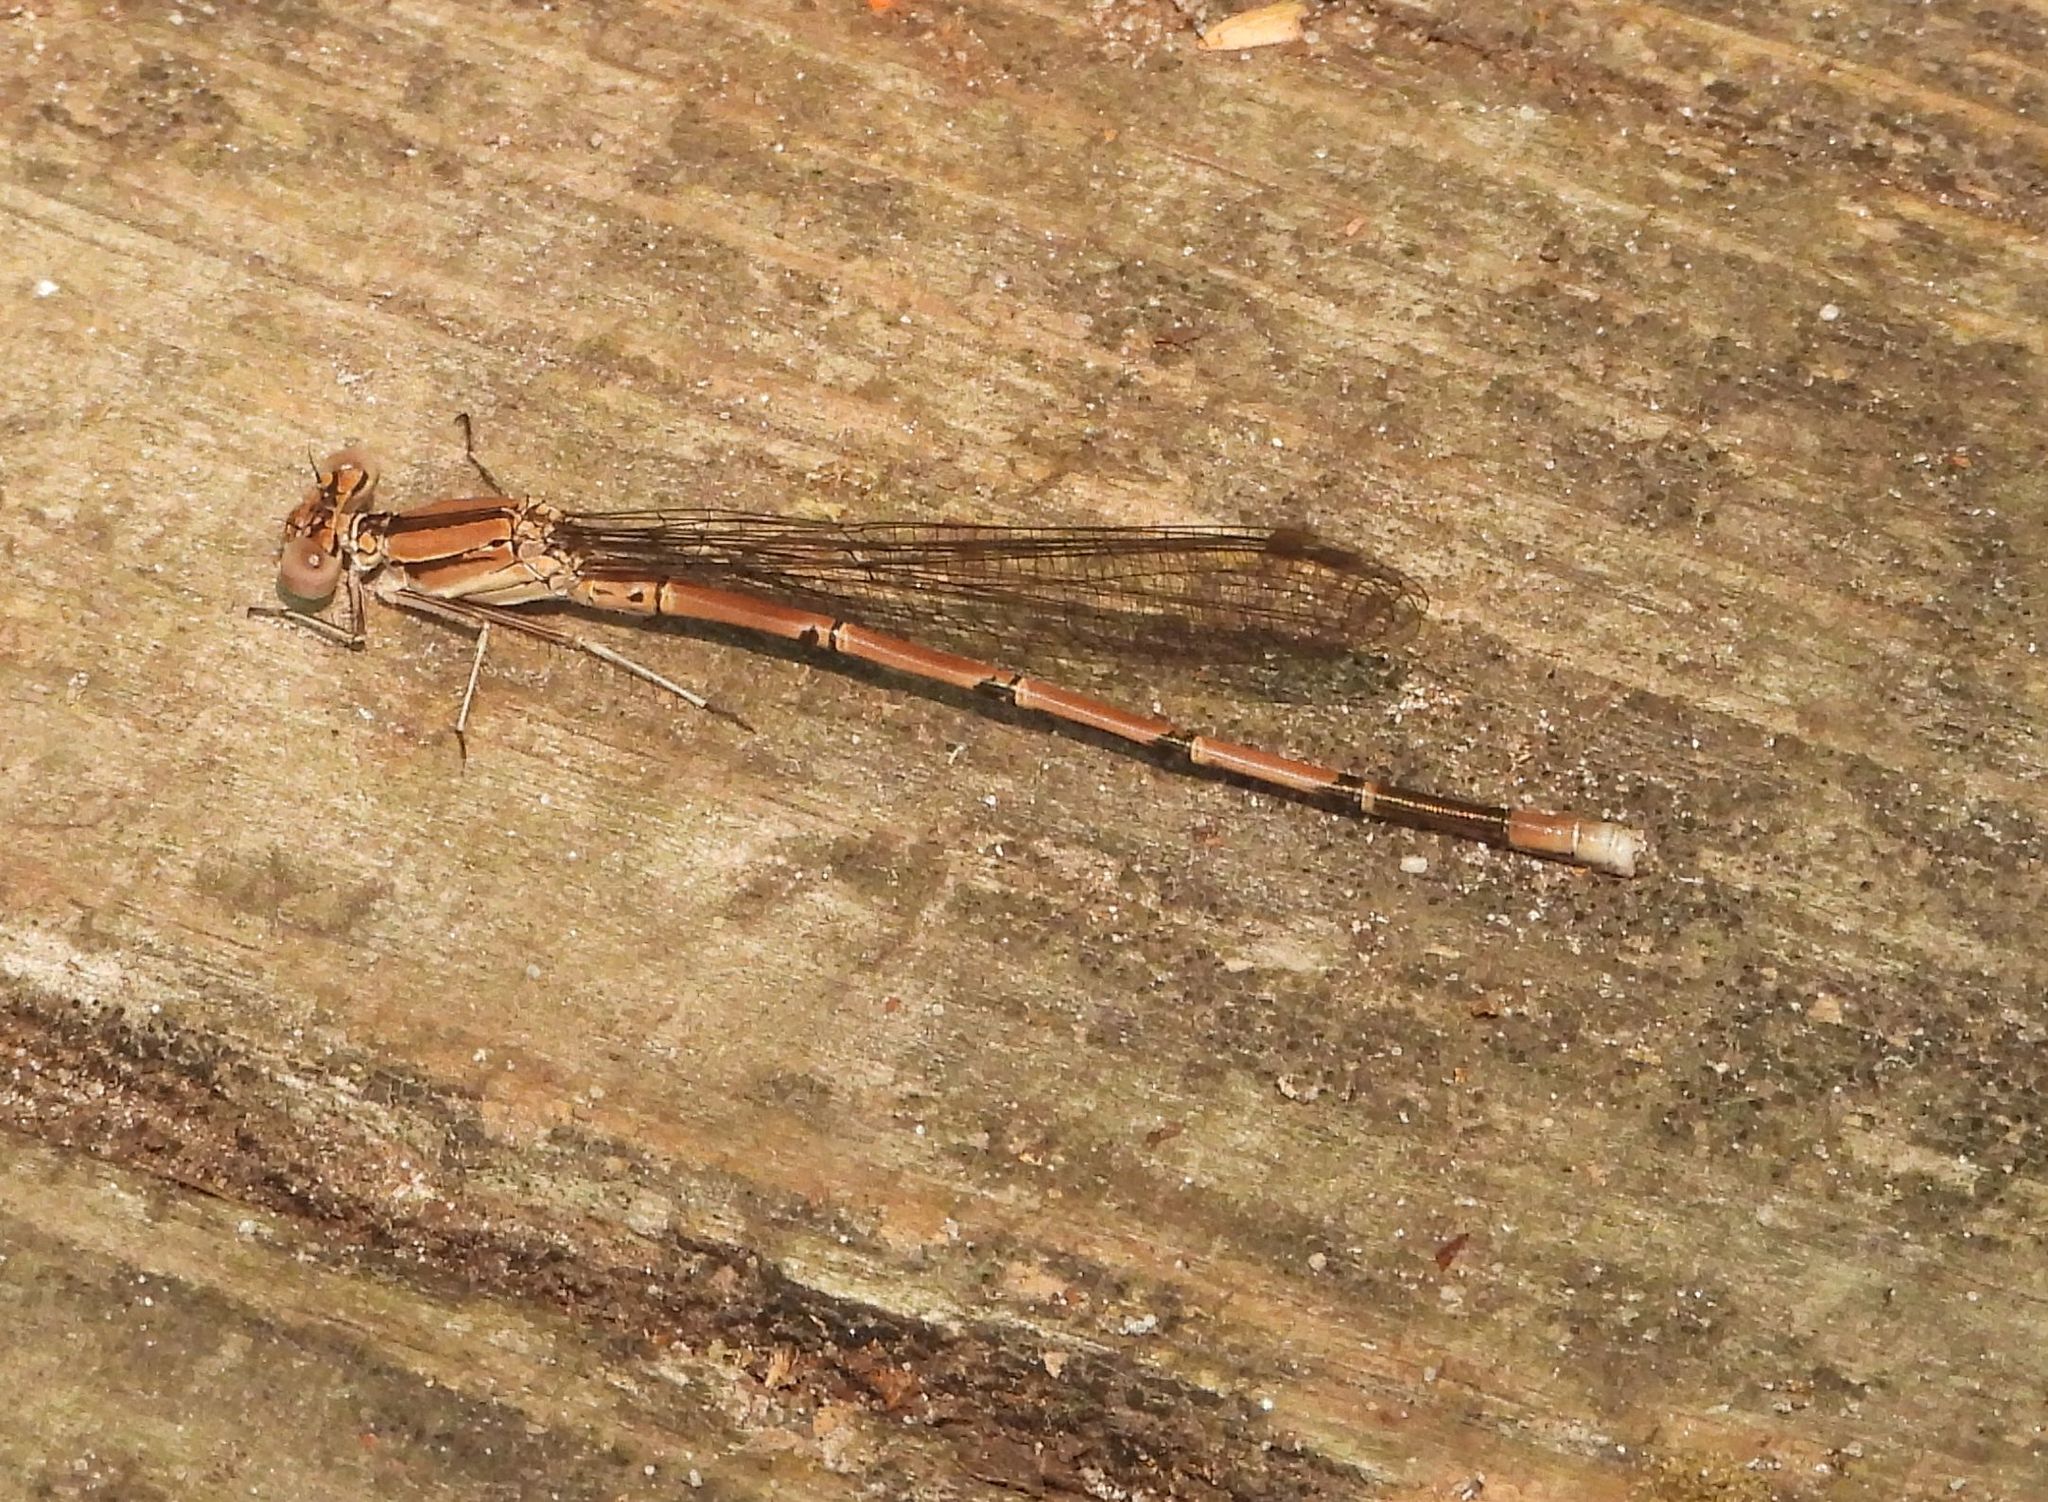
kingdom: Animalia
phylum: Arthropoda
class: Insecta
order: Odonata
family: Coenagrionidae
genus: Argia
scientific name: Argia fumipennis
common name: Variable dancer
